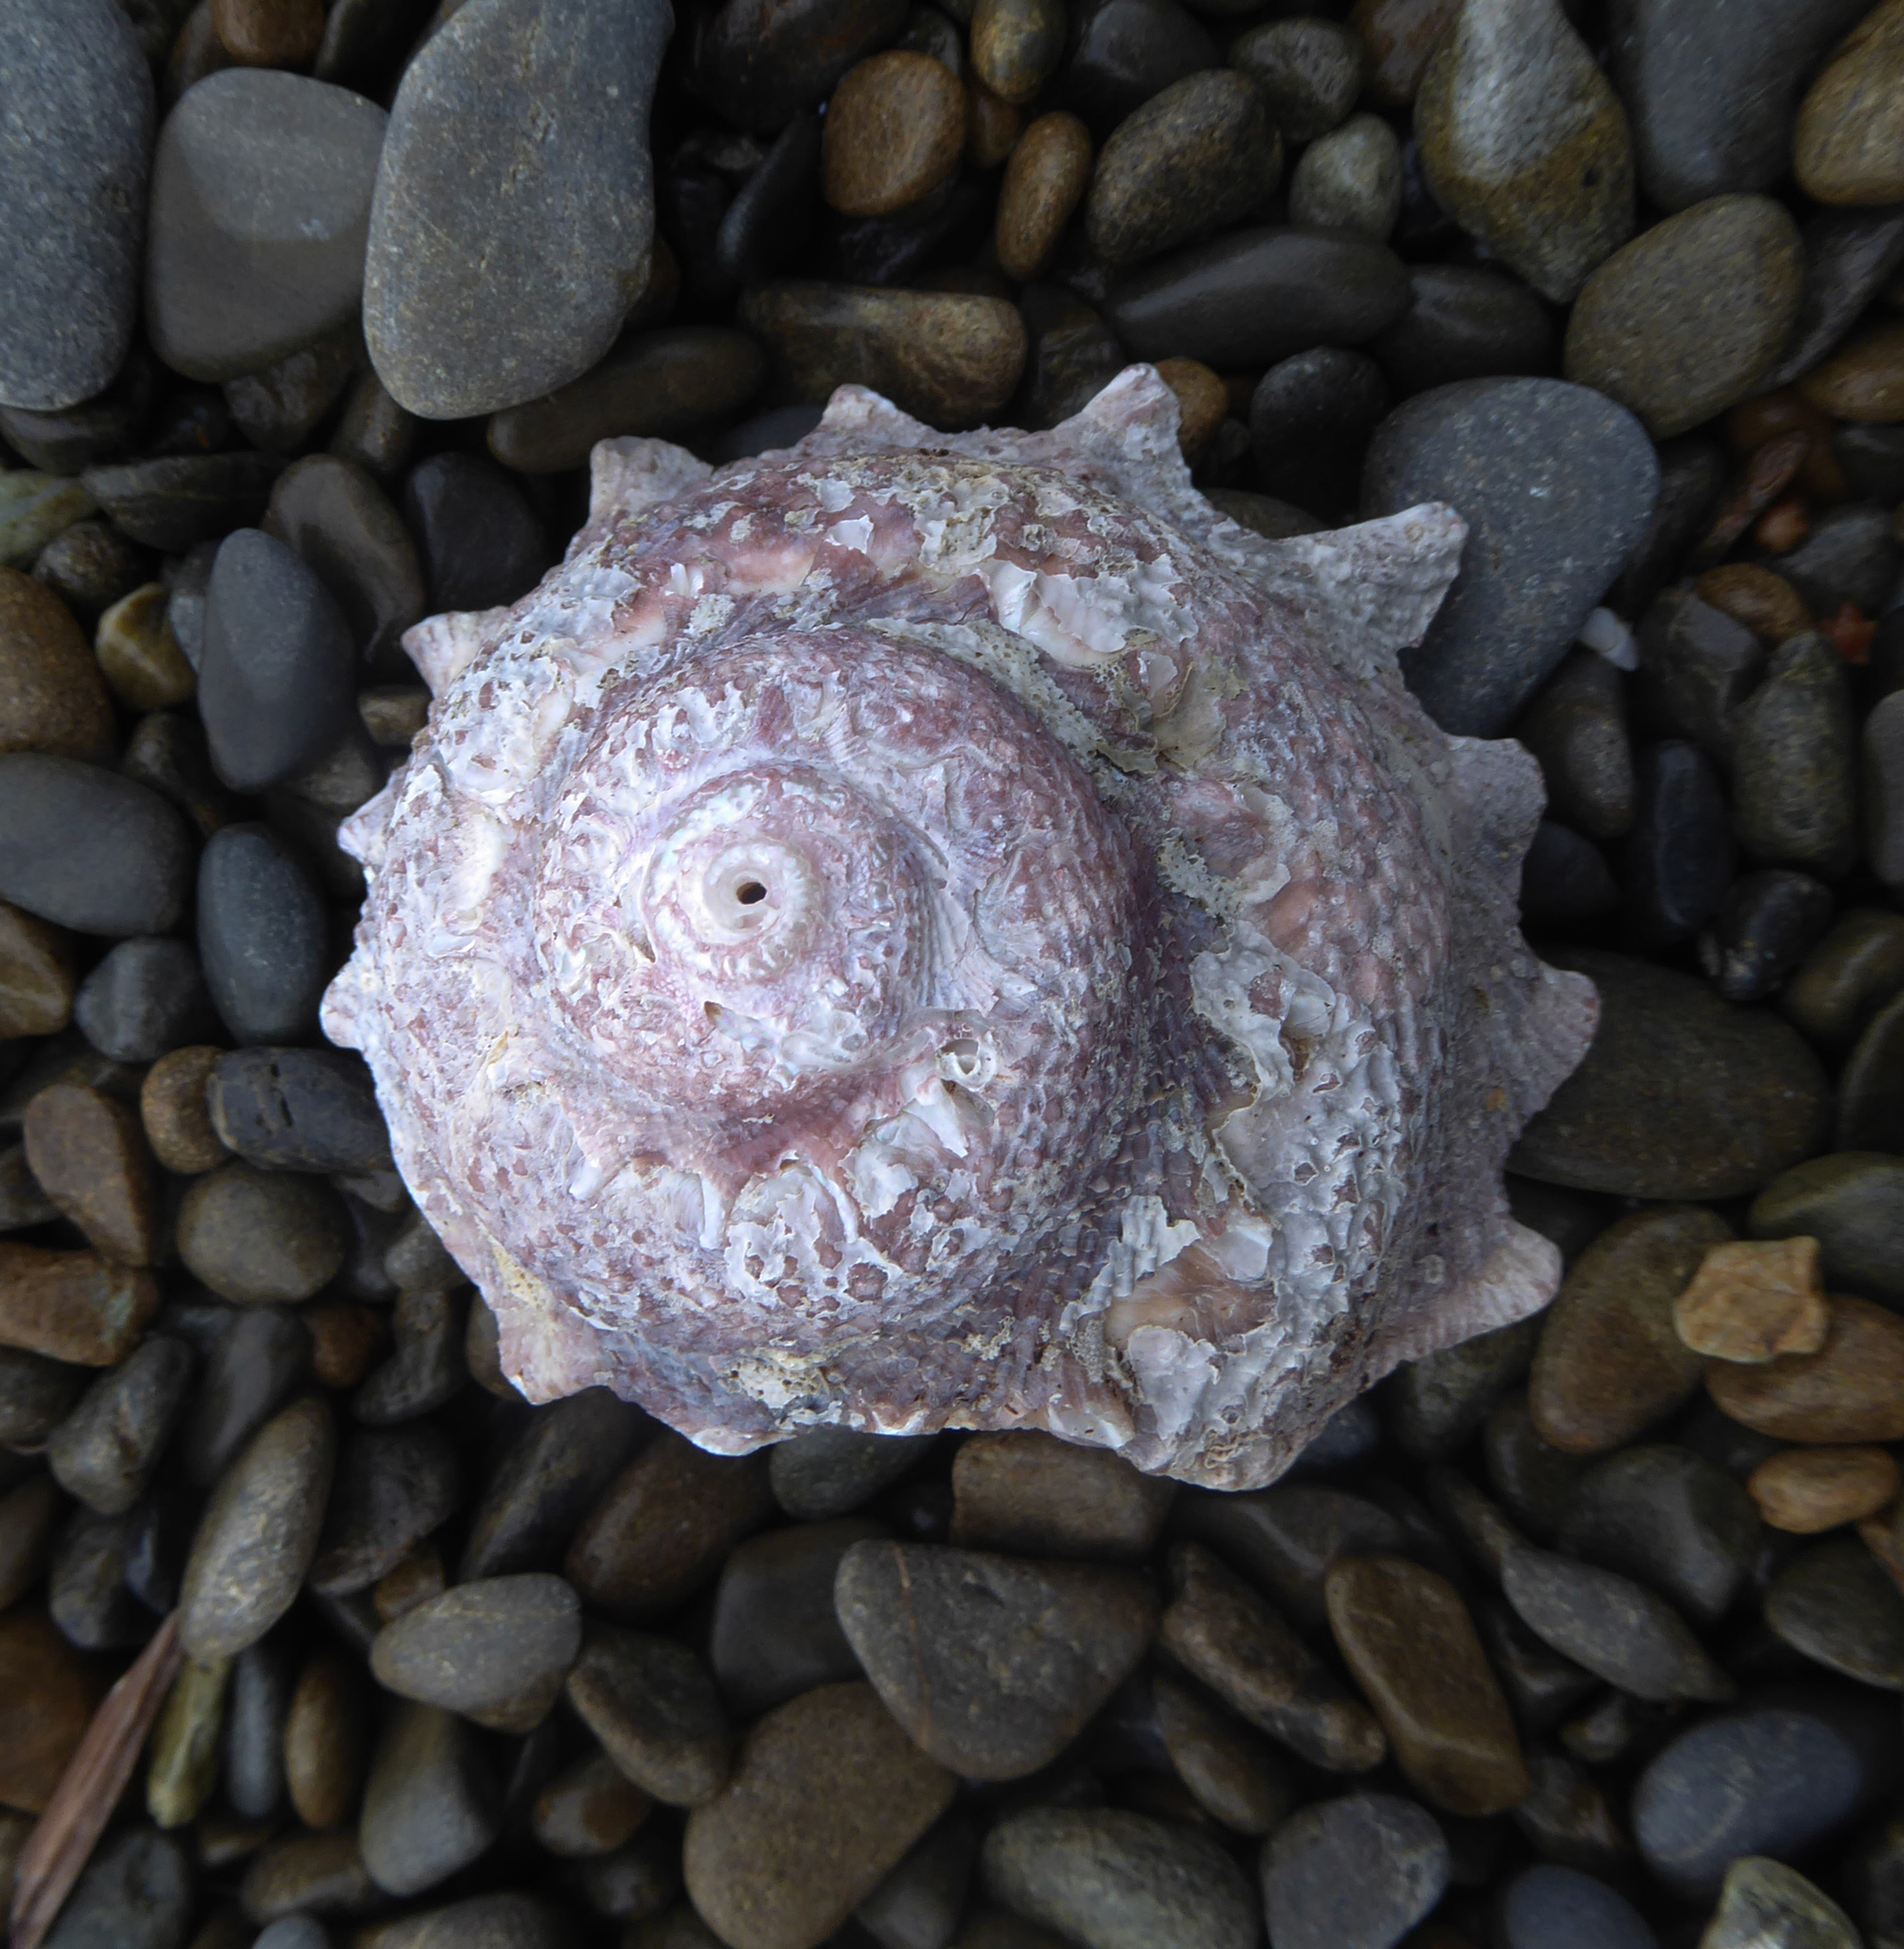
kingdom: Animalia
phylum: Mollusca
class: Gastropoda
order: Trochida
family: Turbinidae
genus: Astraea
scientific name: Astraea heliotropium
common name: Sun shell
